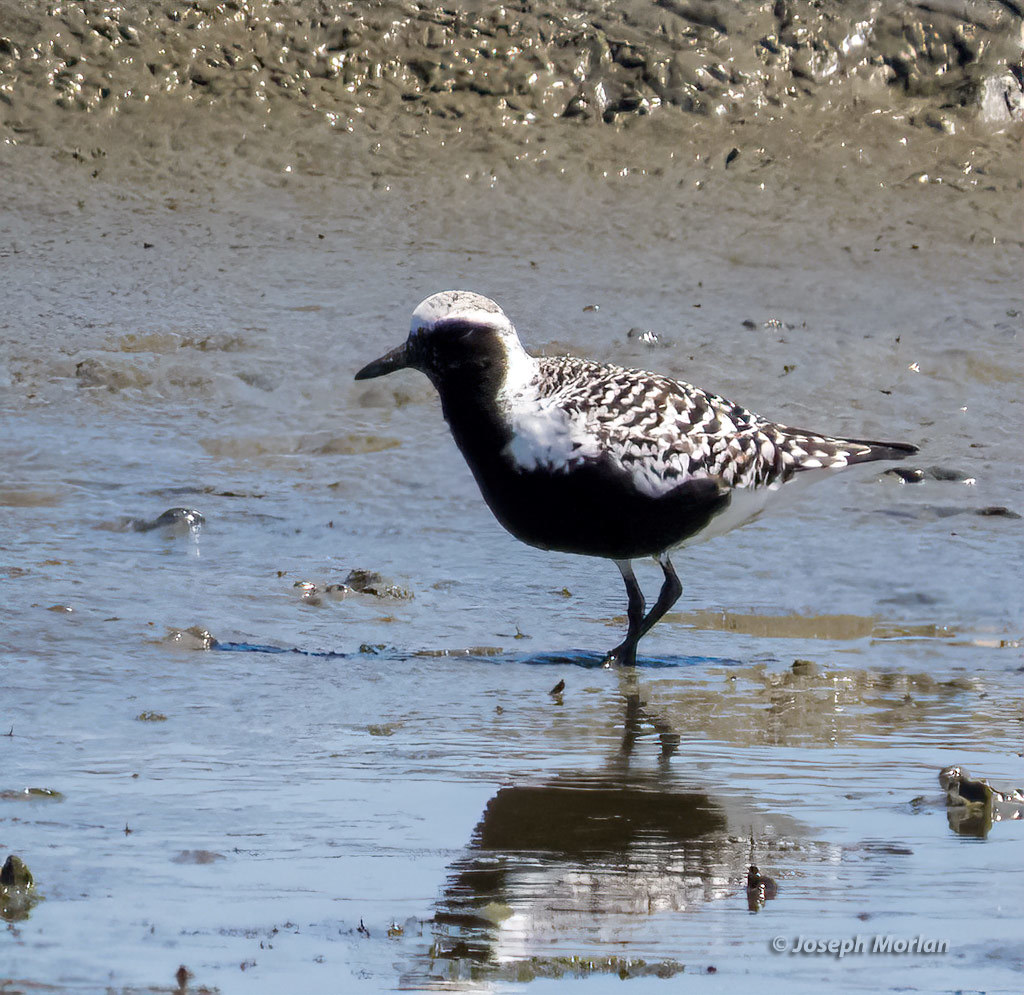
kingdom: Animalia
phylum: Chordata
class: Aves
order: Charadriiformes
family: Charadriidae
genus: Pluvialis
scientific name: Pluvialis squatarola
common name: Grey plover
